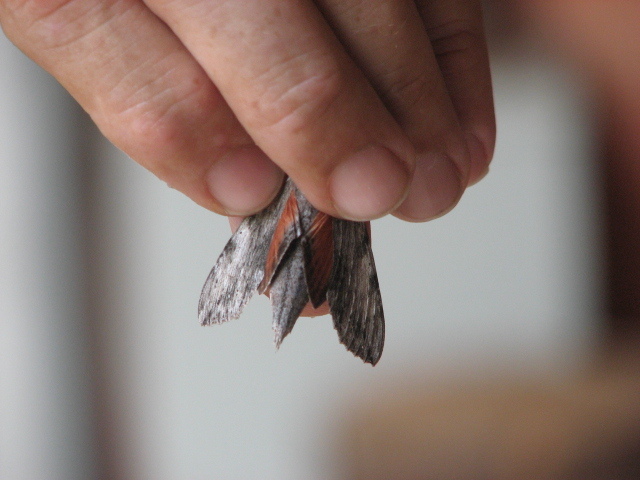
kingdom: Animalia
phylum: Arthropoda
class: Insecta
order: Lepidoptera
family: Sphingidae
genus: Erinnyis
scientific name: Erinnyis obscura
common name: Obscure sphinx
